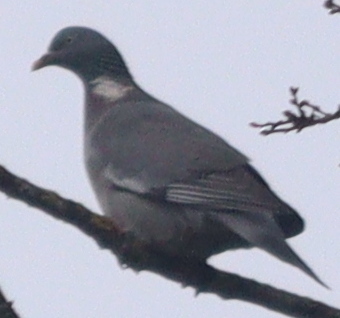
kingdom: Animalia
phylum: Chordata
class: Aves
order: Columbiformes
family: Columbidae
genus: Columba
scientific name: Columba palumbus
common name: Common wood pigeon
